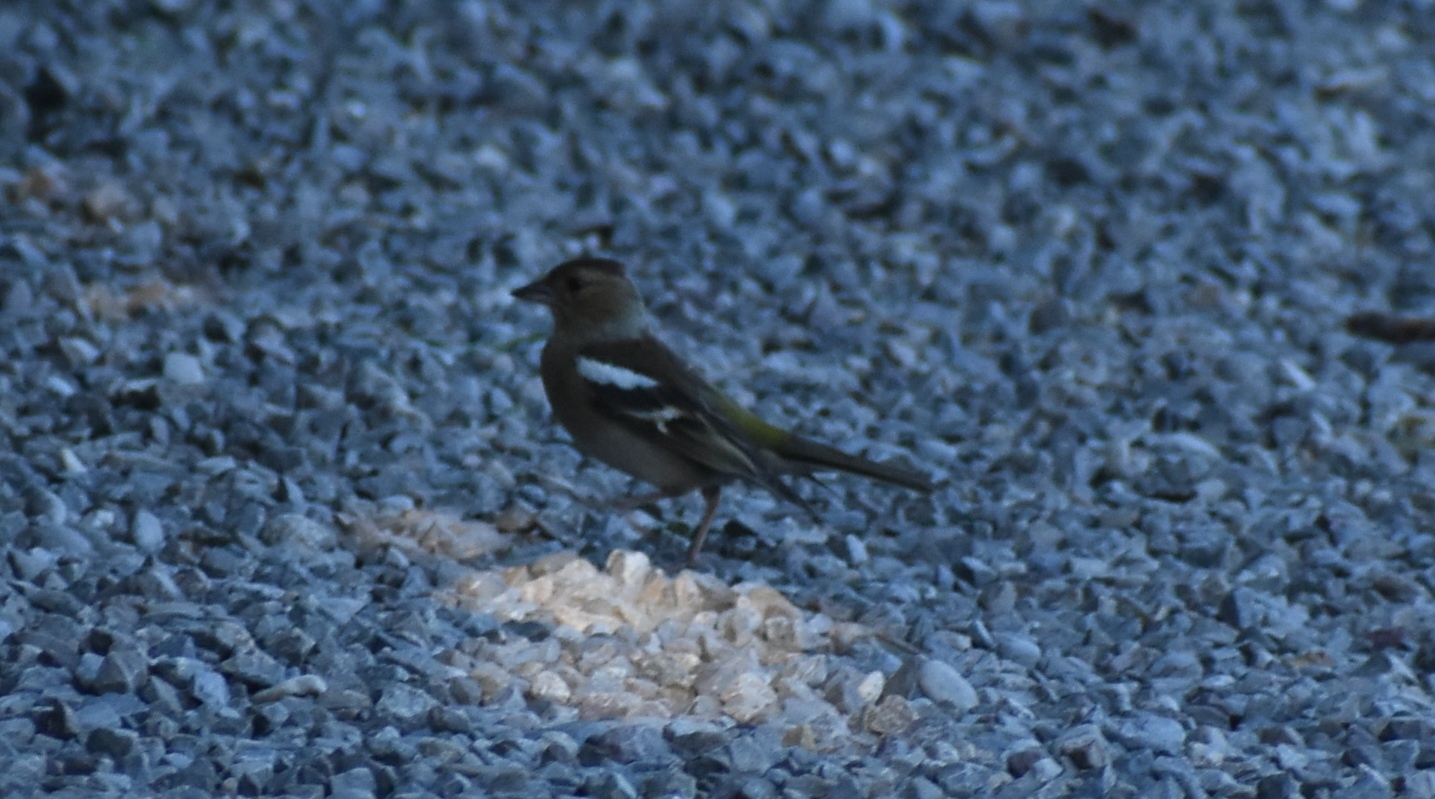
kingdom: Animalia
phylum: Chordata
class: Aves
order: Passeriformes
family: Fringillidae
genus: Fringilla
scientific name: Fringilla coelebs
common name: Common chaffinch
